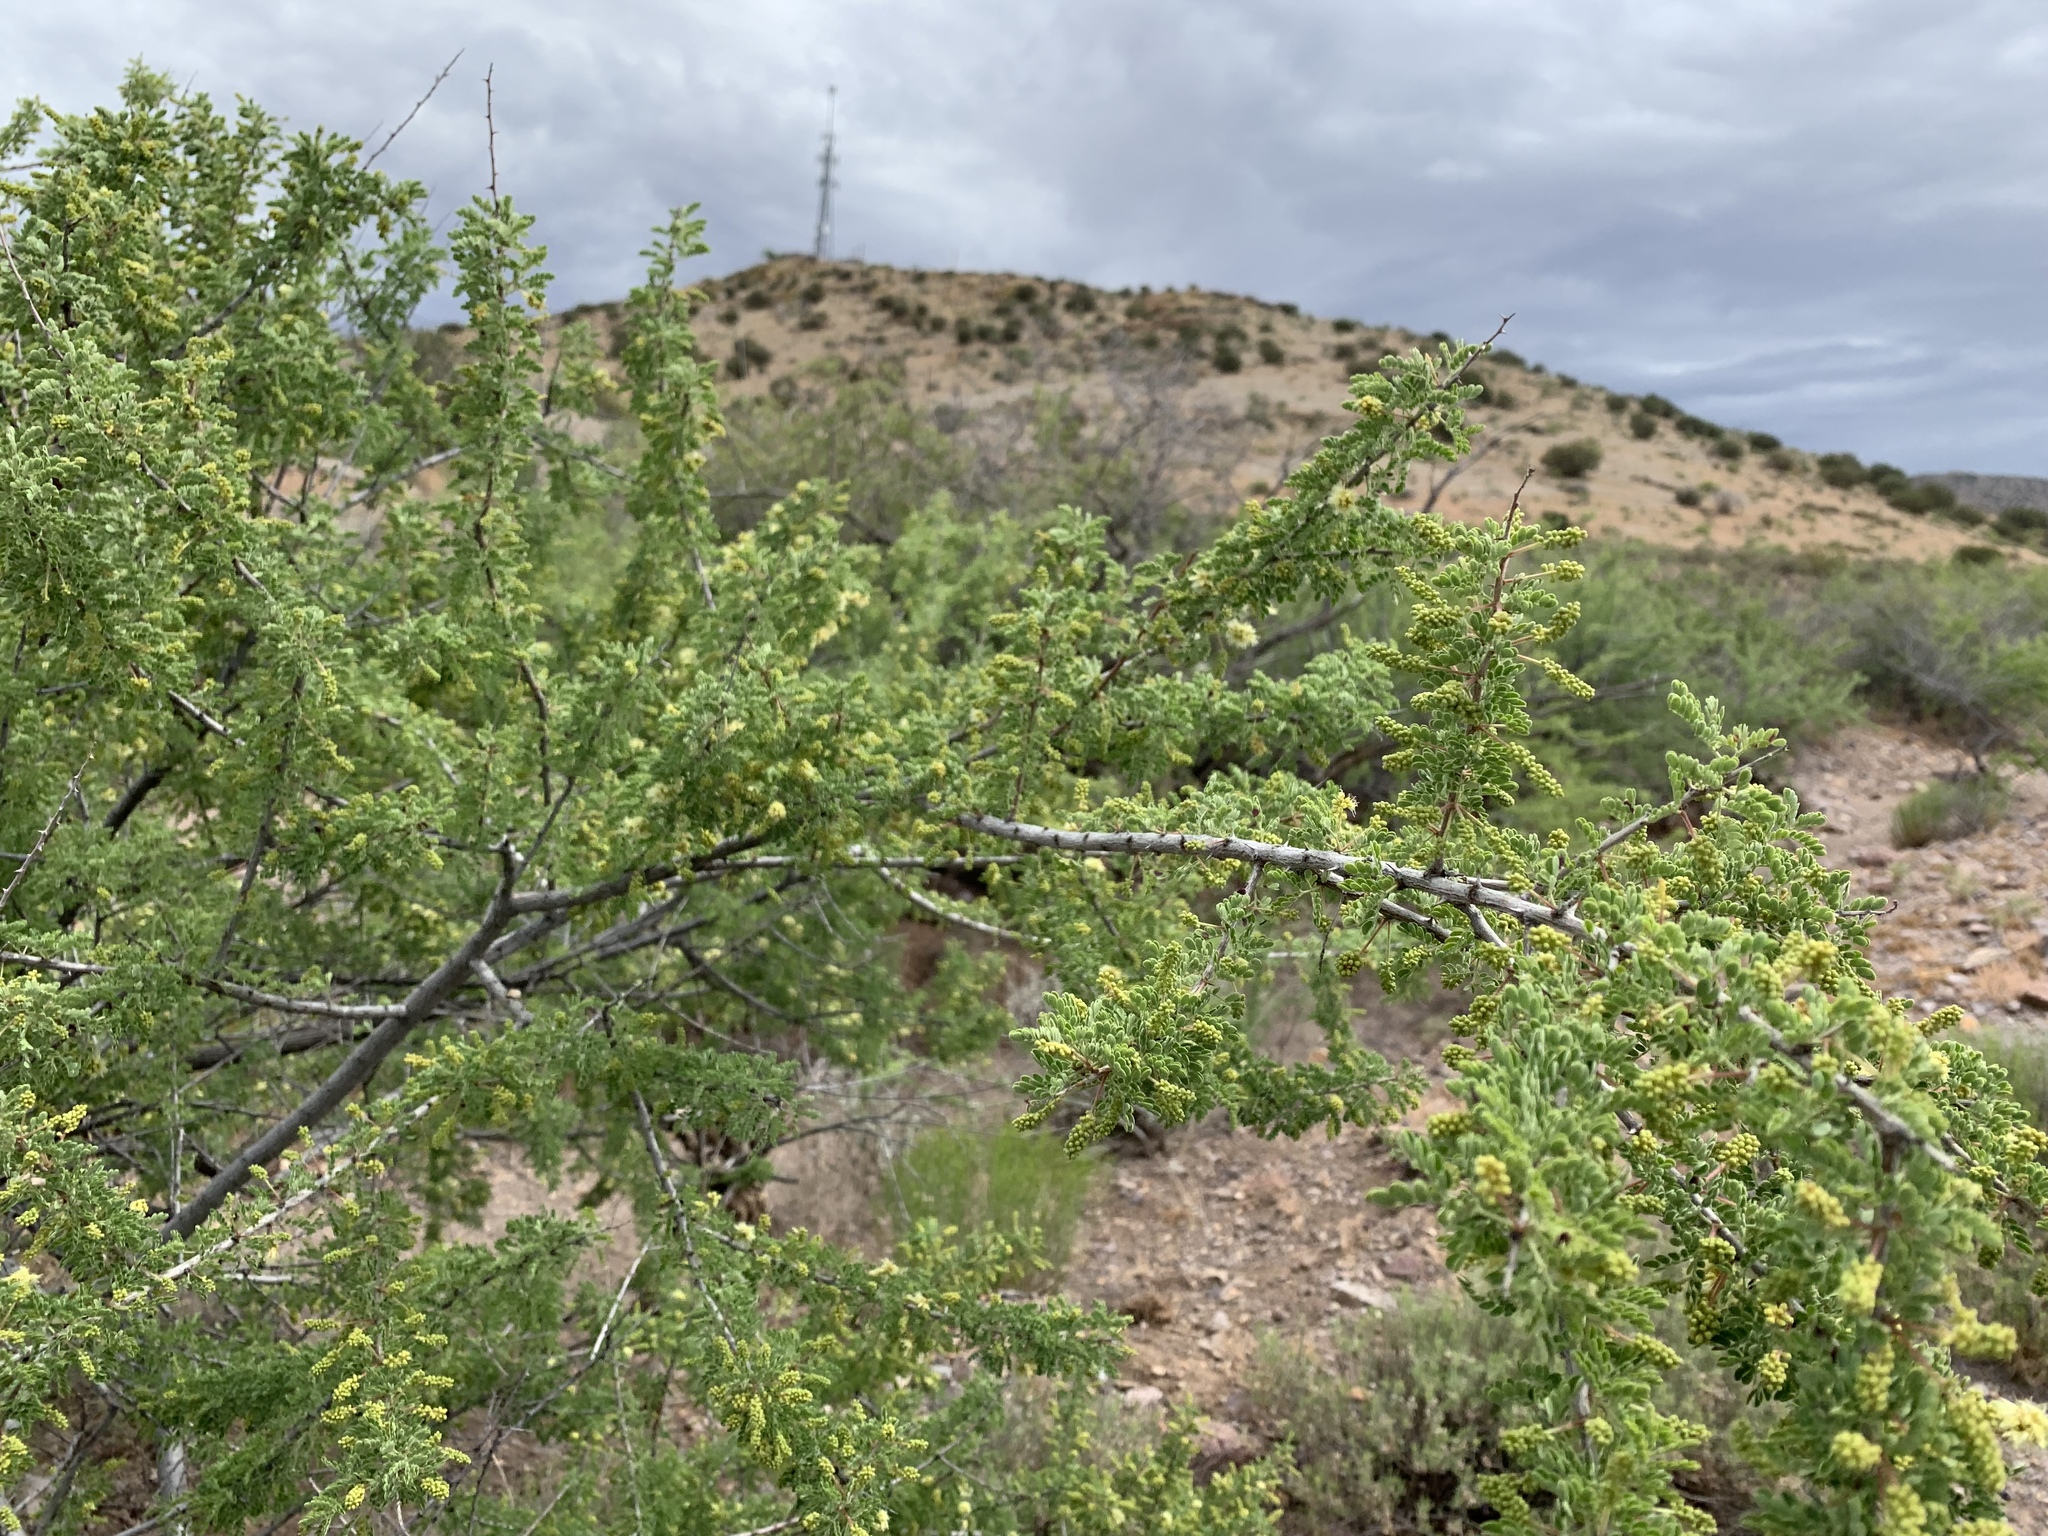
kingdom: Plantae
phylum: Tracheophyta
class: Magnoliopsida
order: Fabales
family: Fabaceae
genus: Senegalia
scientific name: Senegalia greggii
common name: Texas-mimosa
